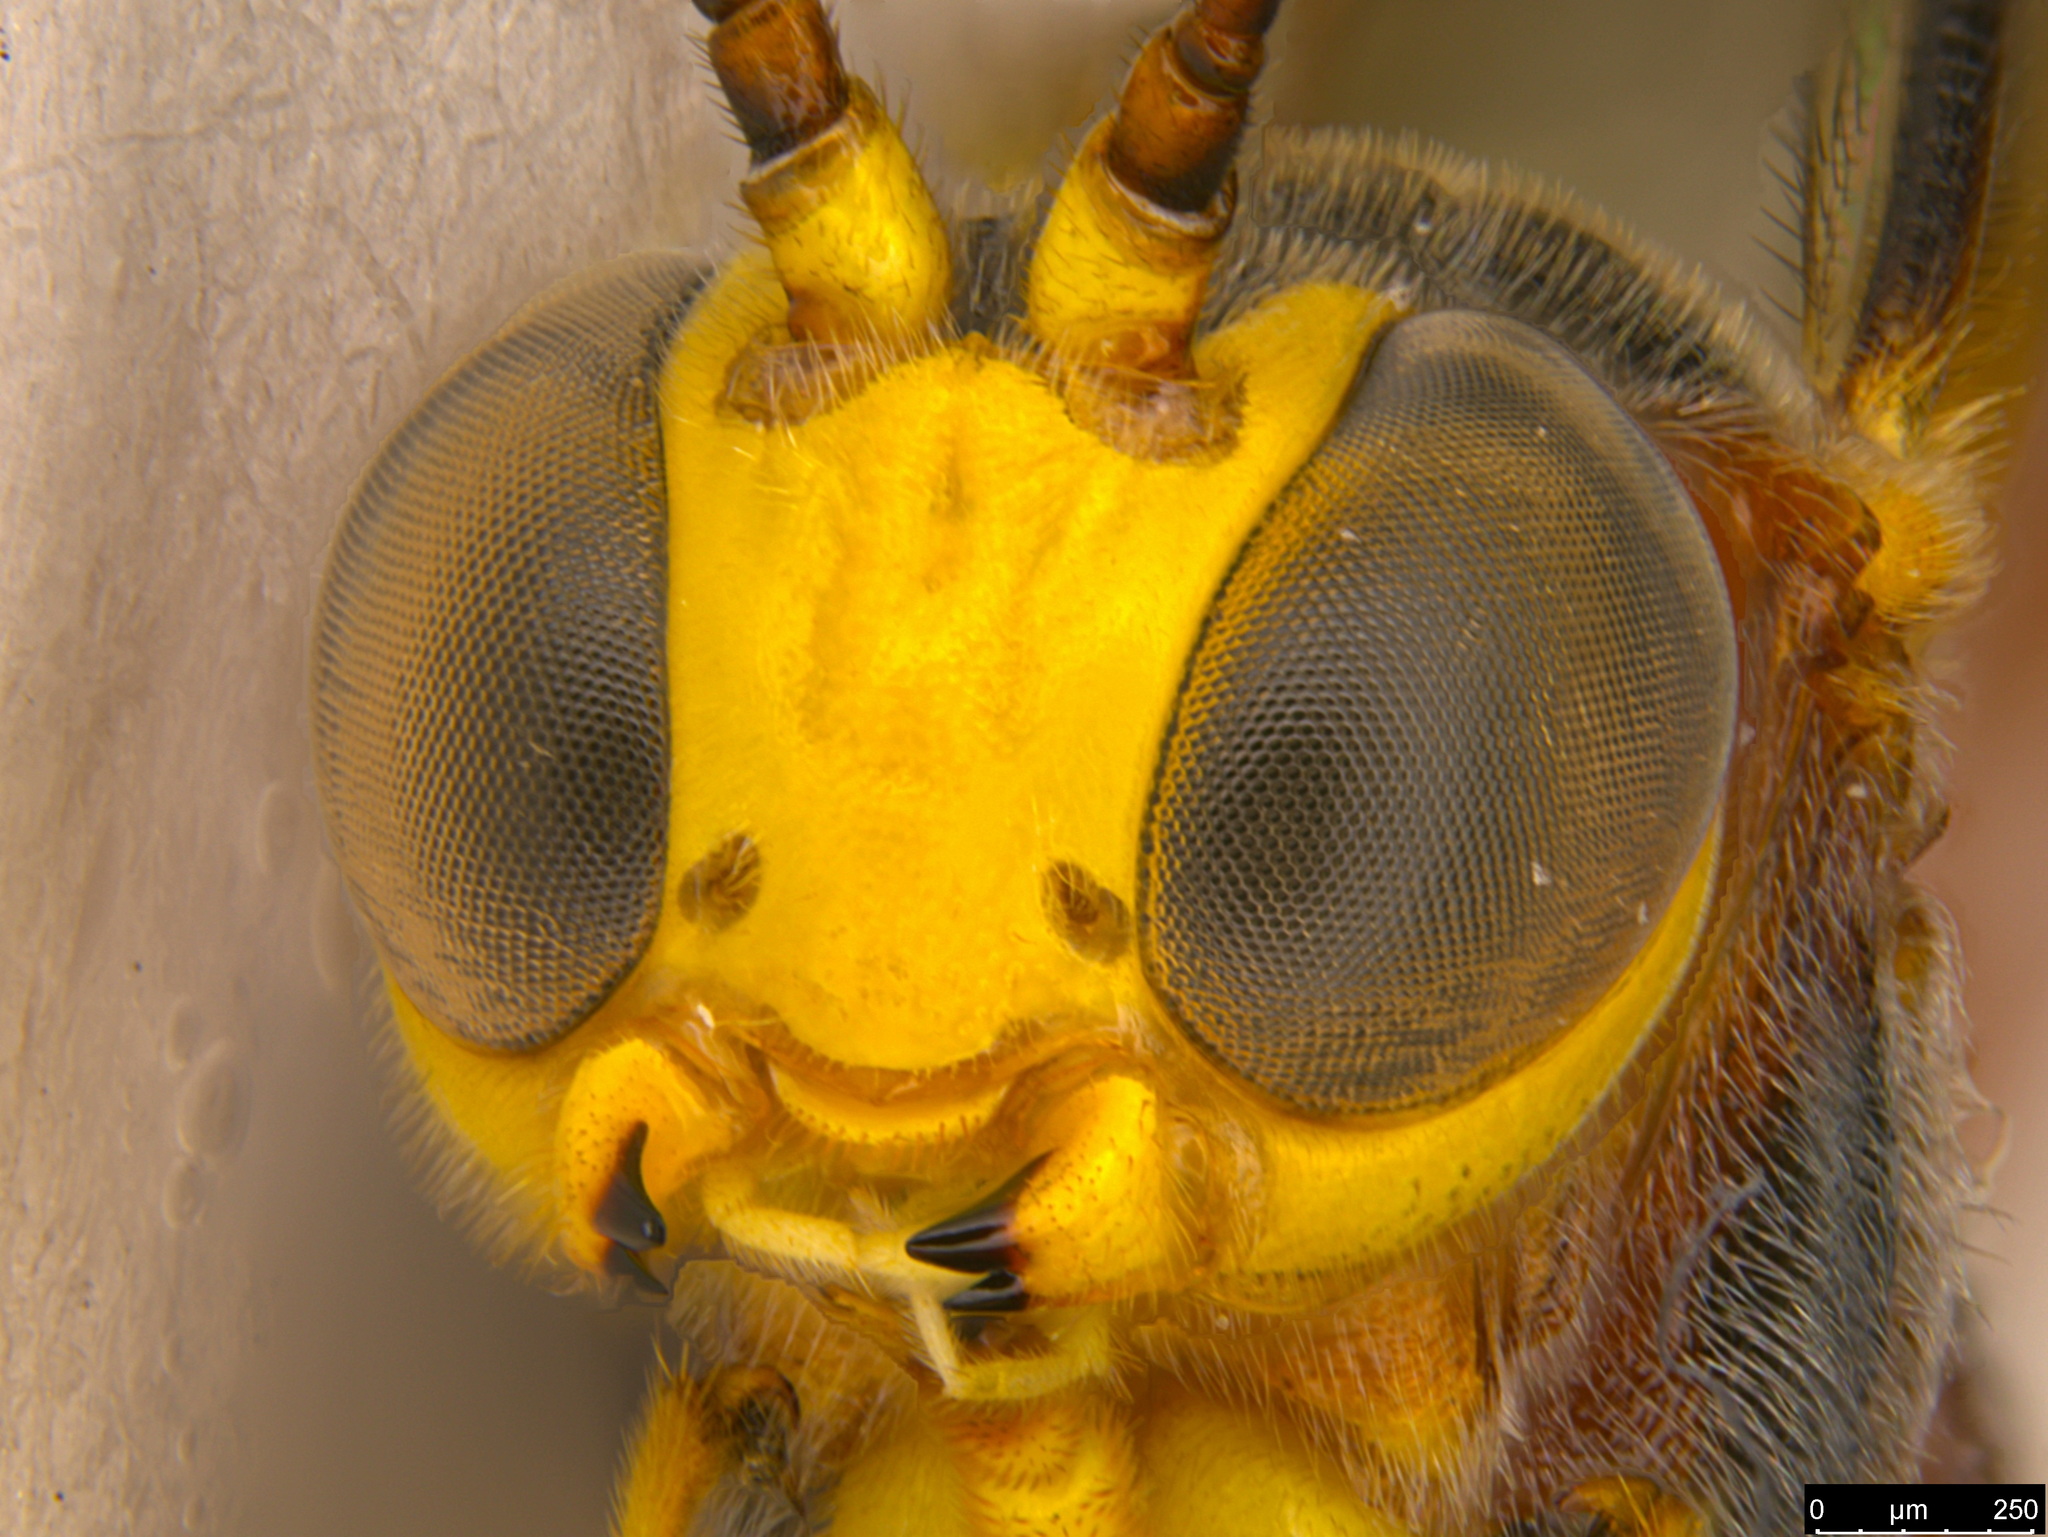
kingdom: Animalia
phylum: Arthropoda
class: Insecta
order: Hymenoptera
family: Ichneumonidae
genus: Habronyx
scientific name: Habronyx victorianus
